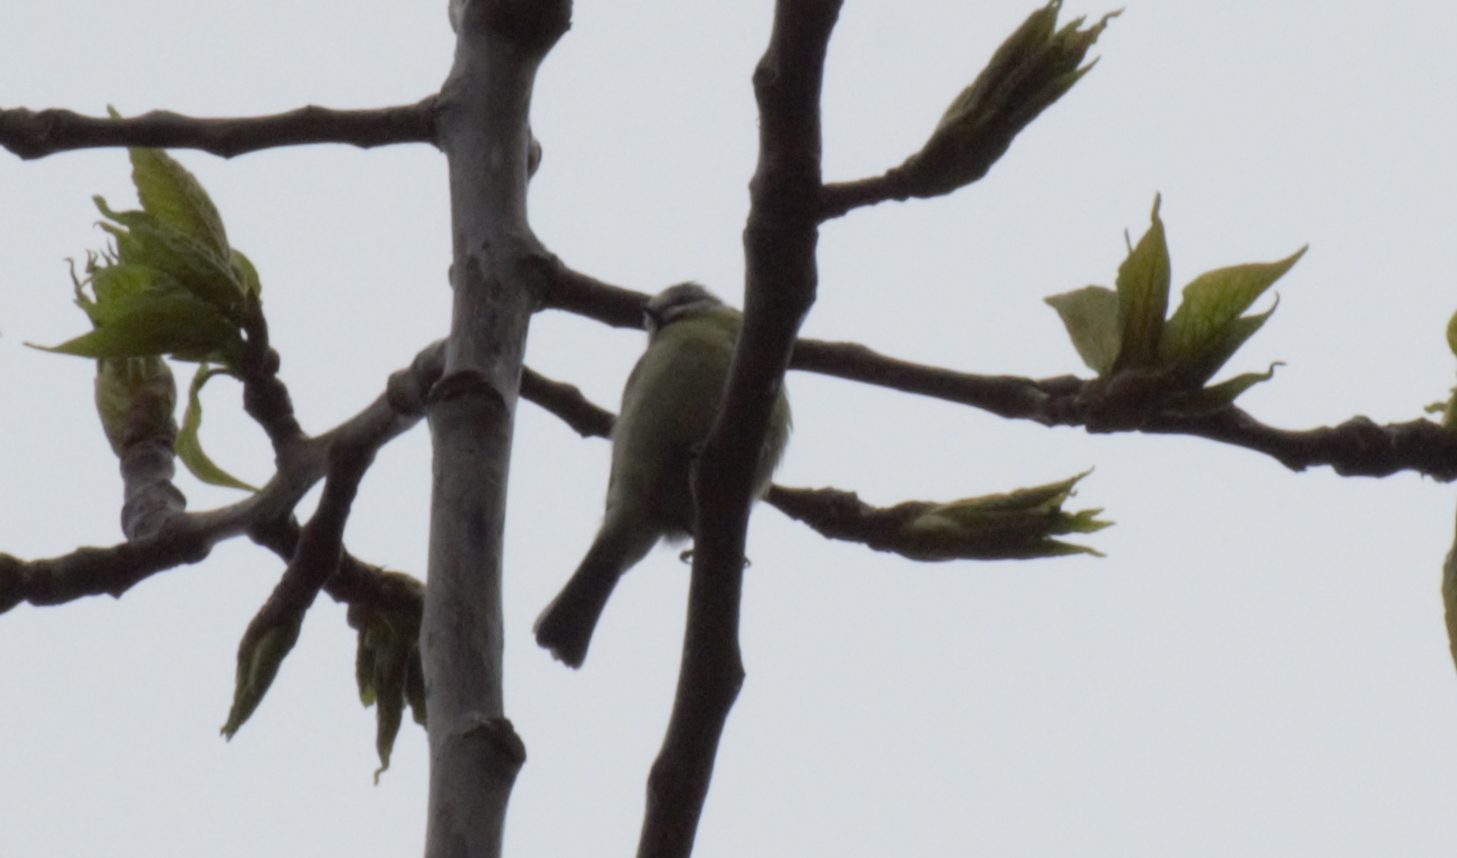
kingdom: Animalia
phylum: Chordata
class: Aves
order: Passeriformes
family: Paridae
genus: Cyanistes
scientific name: Cyanistes caeruleus
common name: Eurasian blue tit
